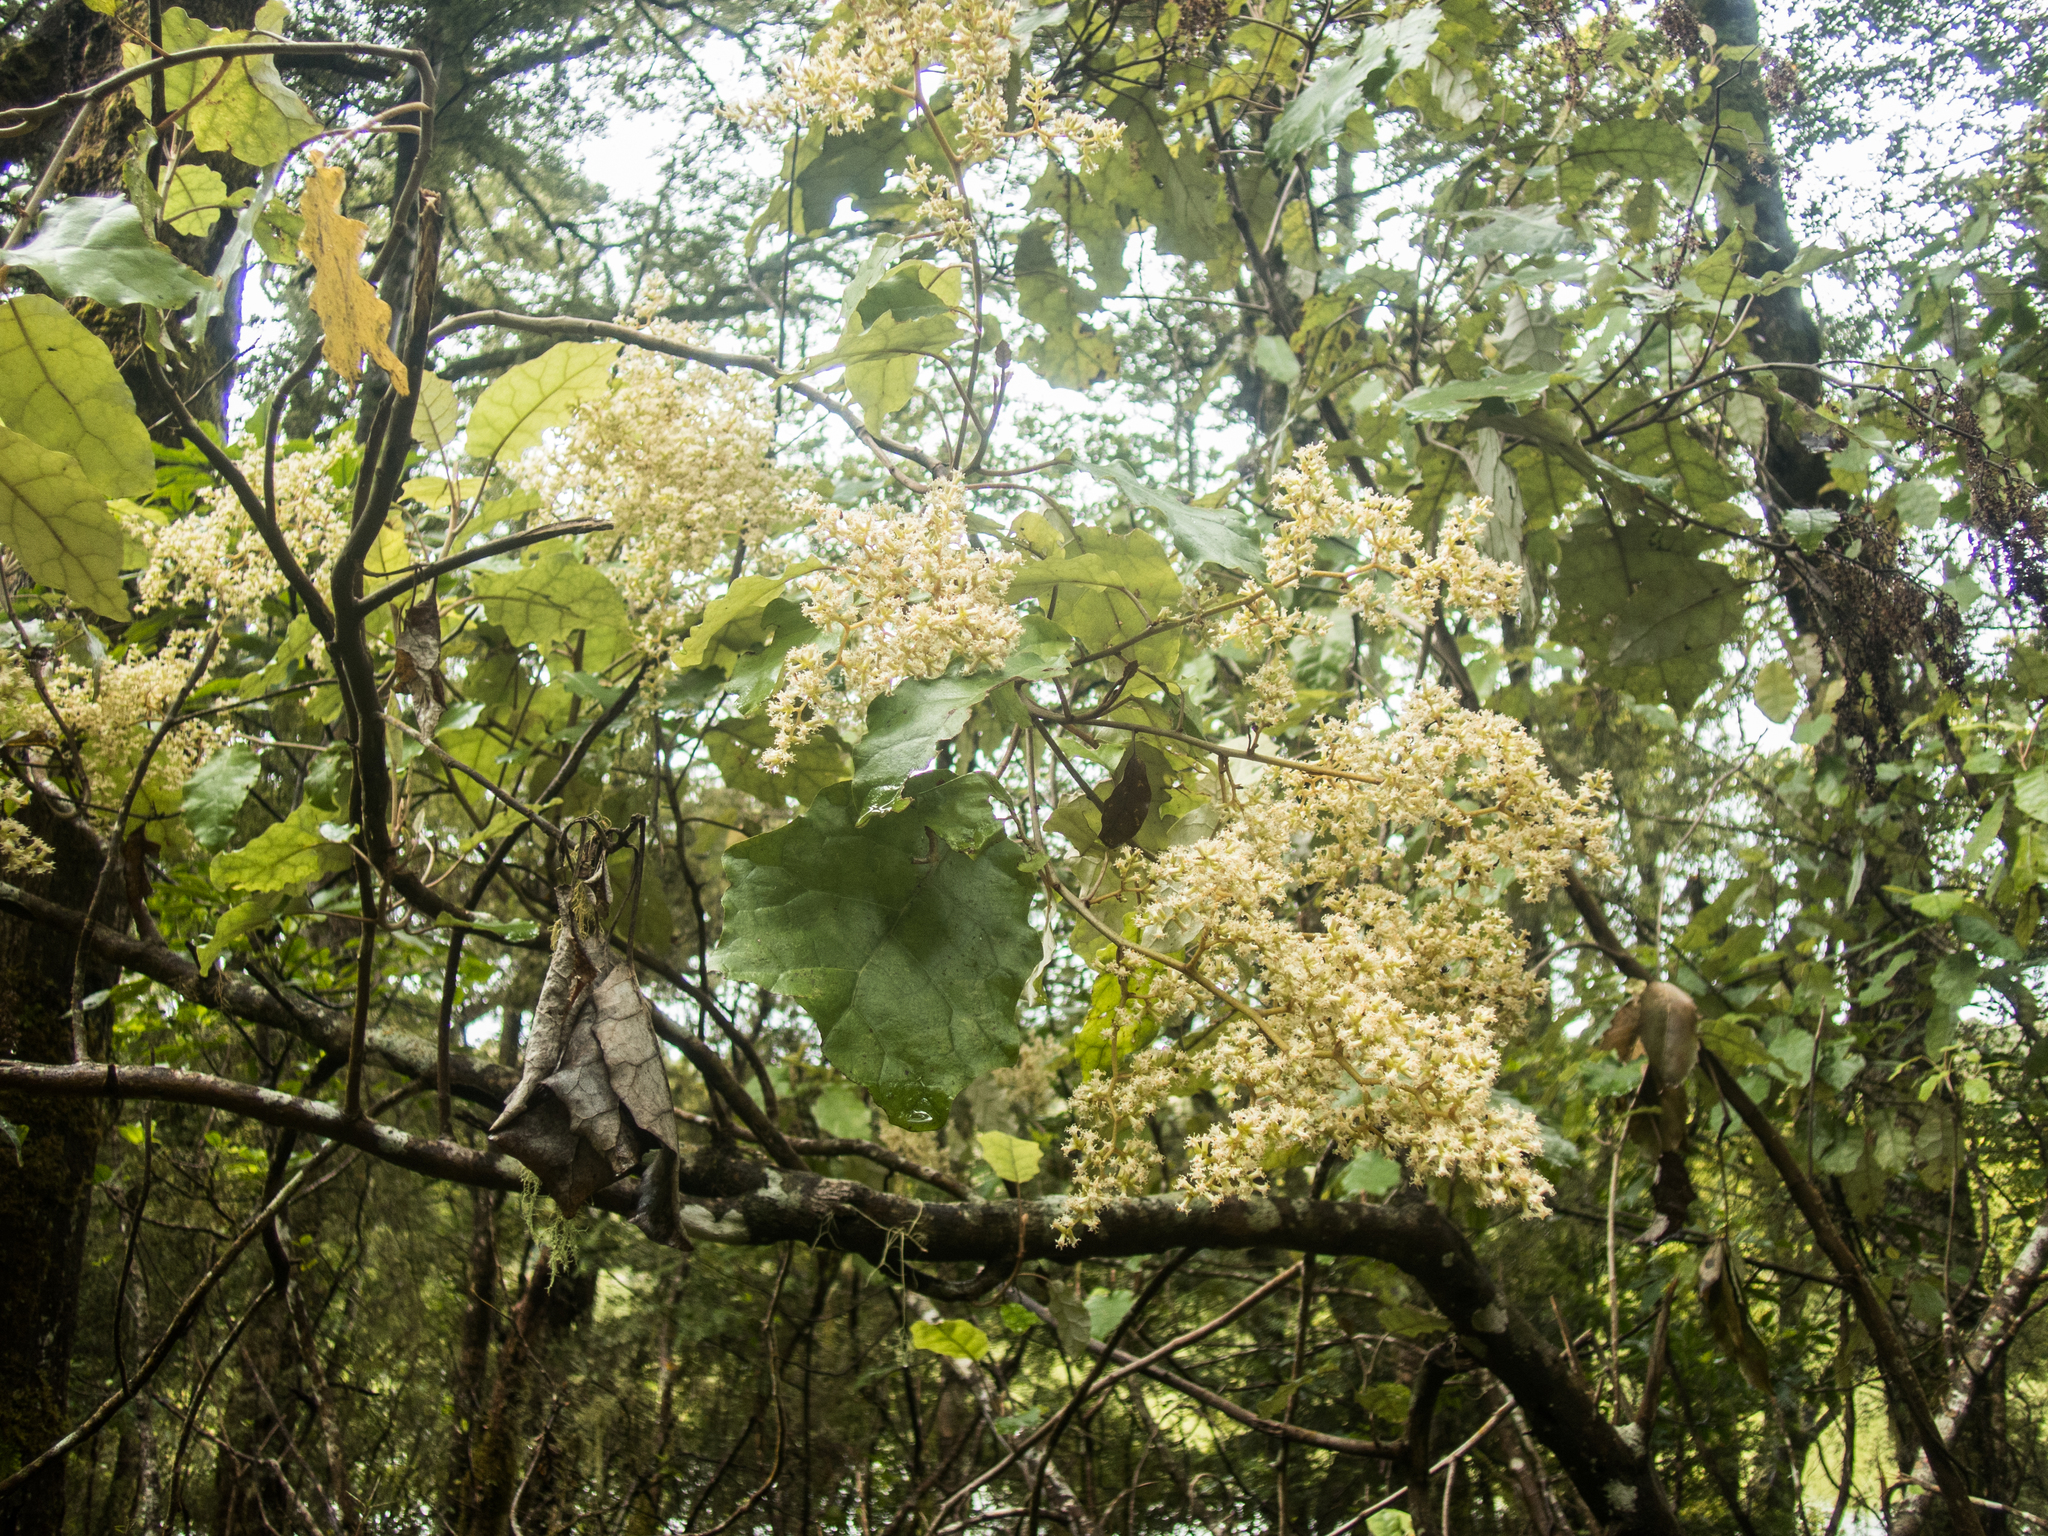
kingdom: Plantae
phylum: Tracheophyta
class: Magnoliopsida
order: Asterales
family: Asteraceae
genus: Brachyglottis
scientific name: Brachyglottis repanda
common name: Hedge ragwort
